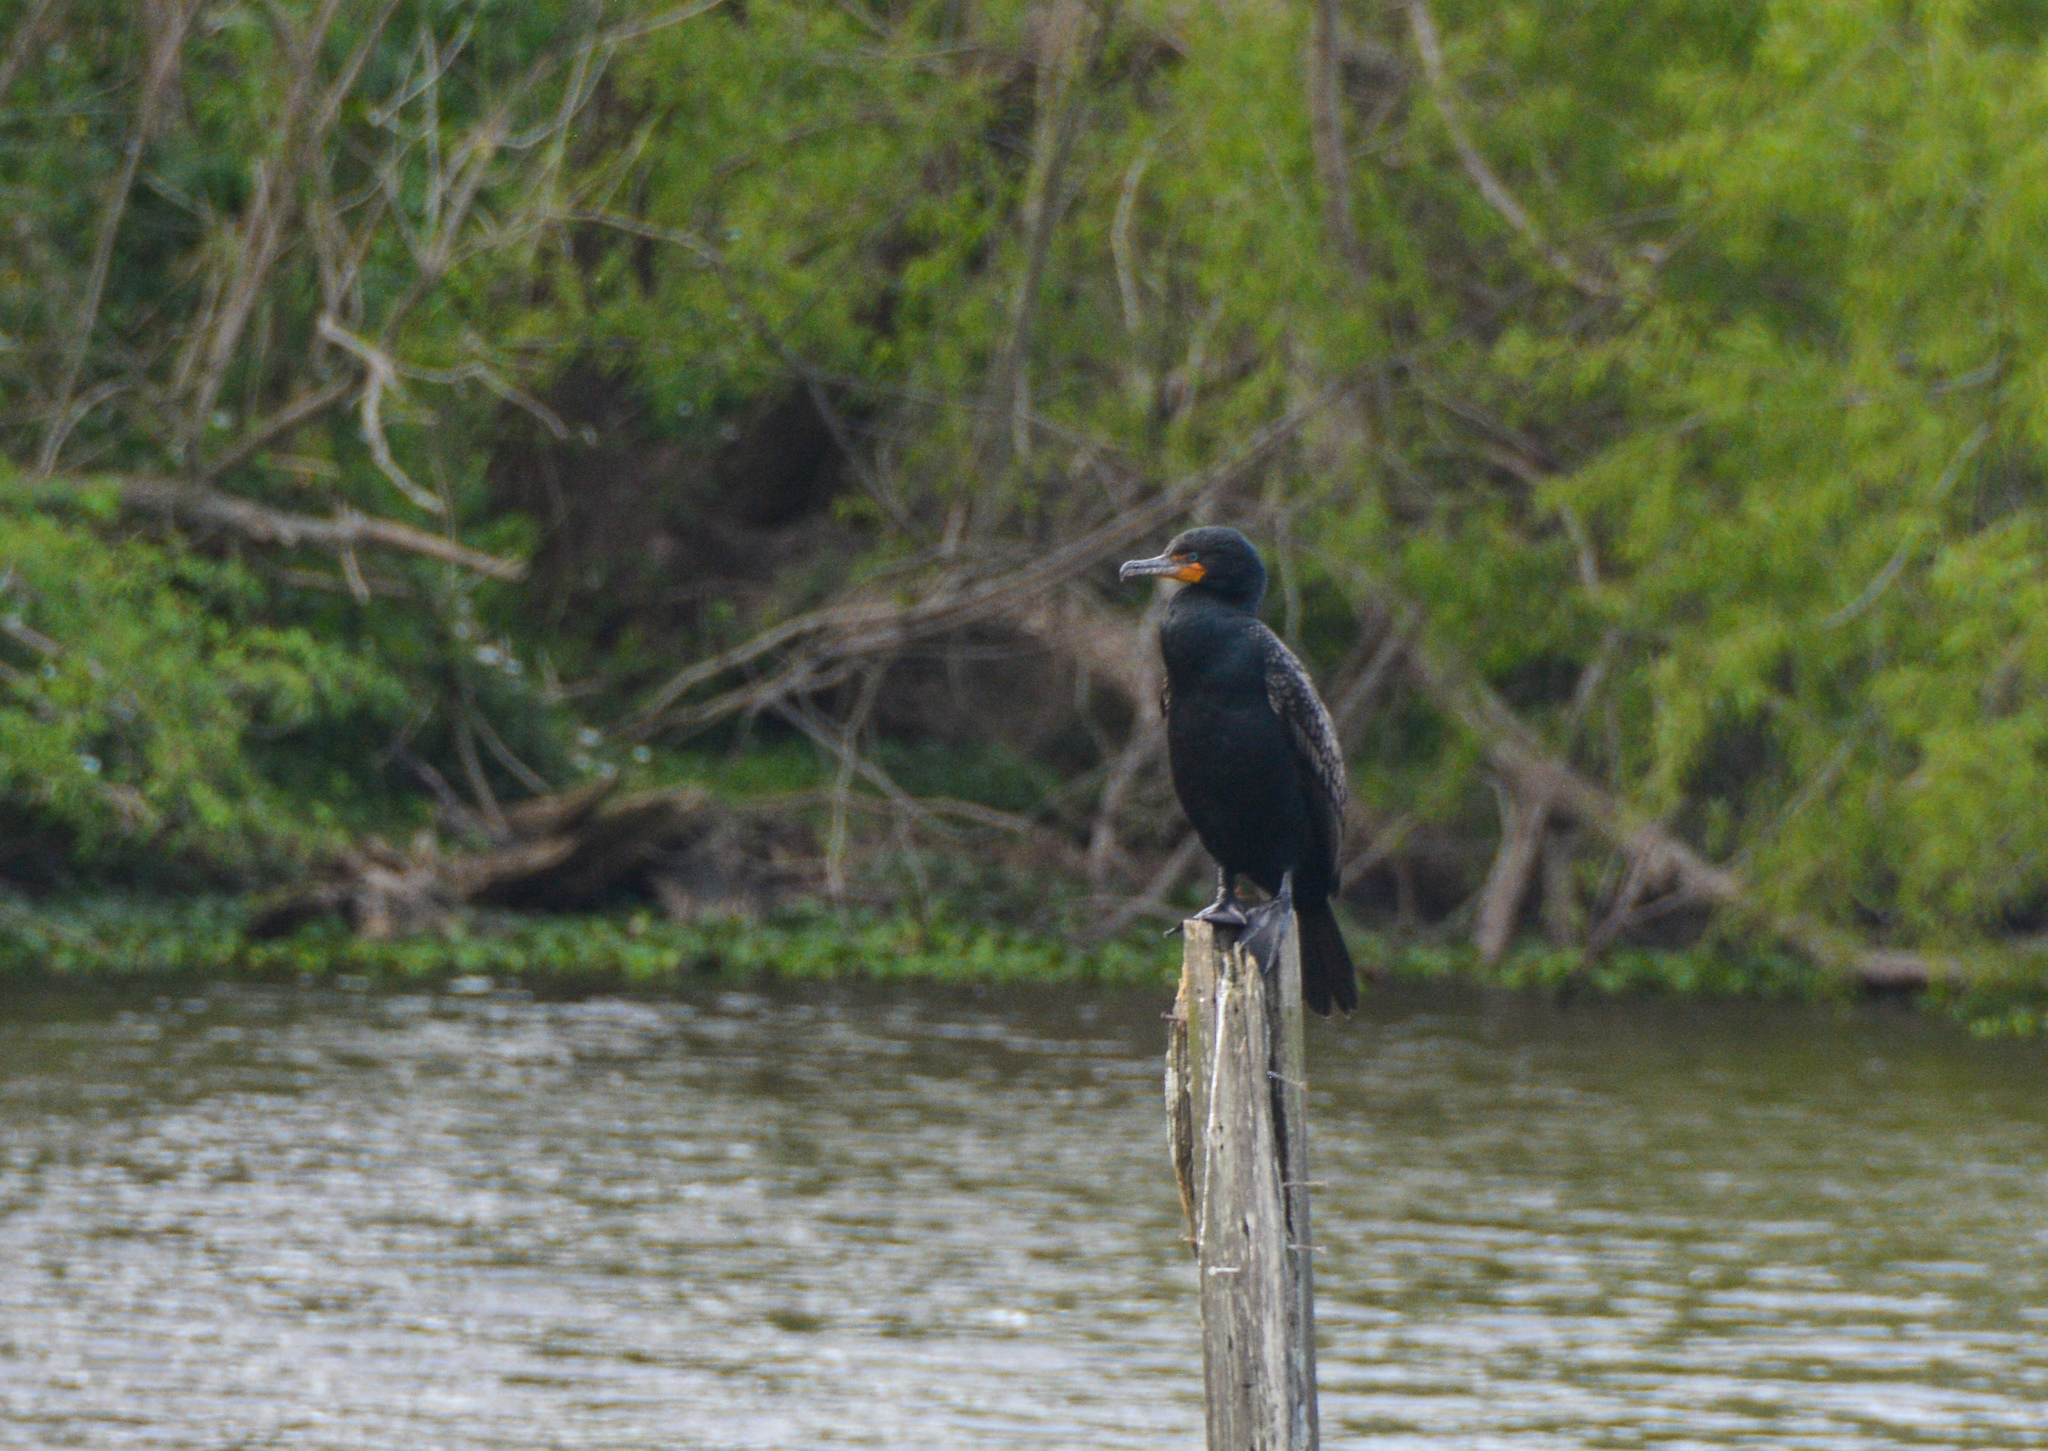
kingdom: Animalia
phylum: Chordata
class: Aves
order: Suliformes
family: Phalacrocoracidae
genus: Phalacrocorax
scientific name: Phalacrocorax auritus
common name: Double-crested cormorant
